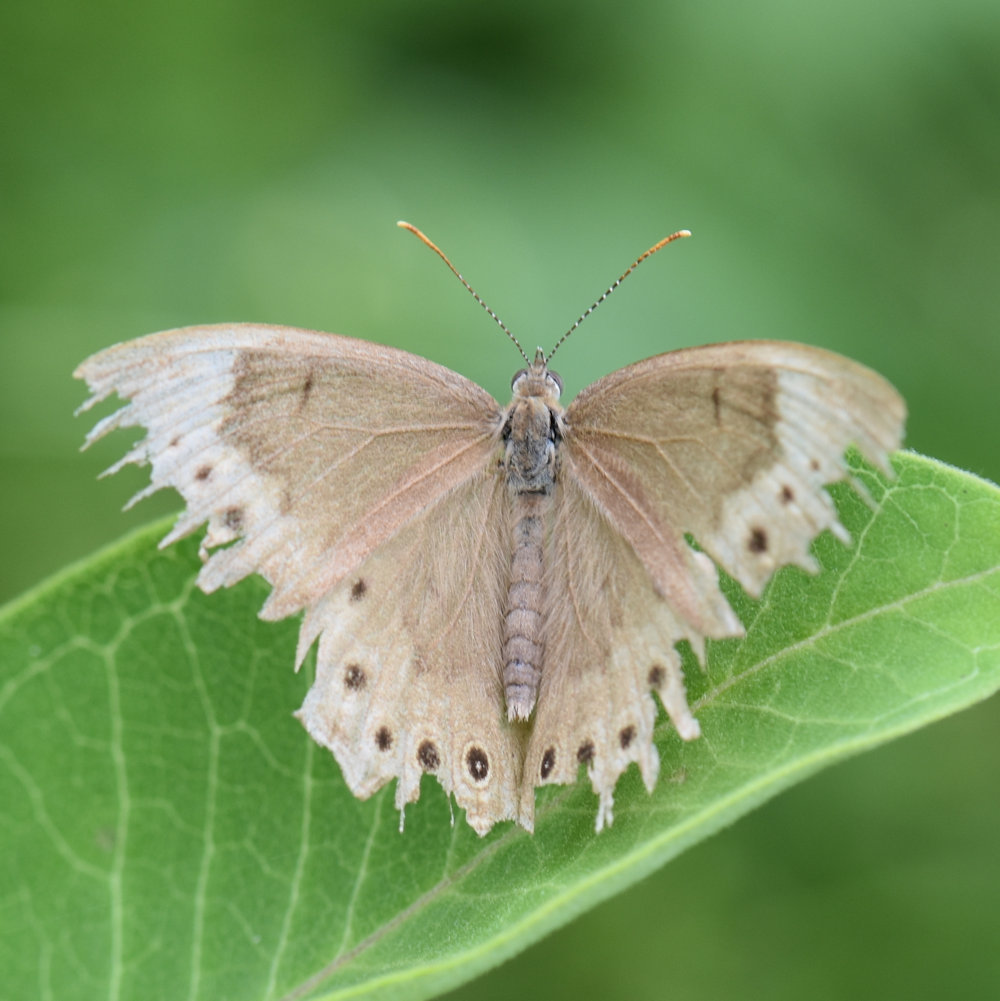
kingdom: Animalia
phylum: Arthropoda
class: Insecta
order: Lepidoptera
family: Nymphalidae
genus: Lethe
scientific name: Lethe eurydice
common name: Eyed brown
